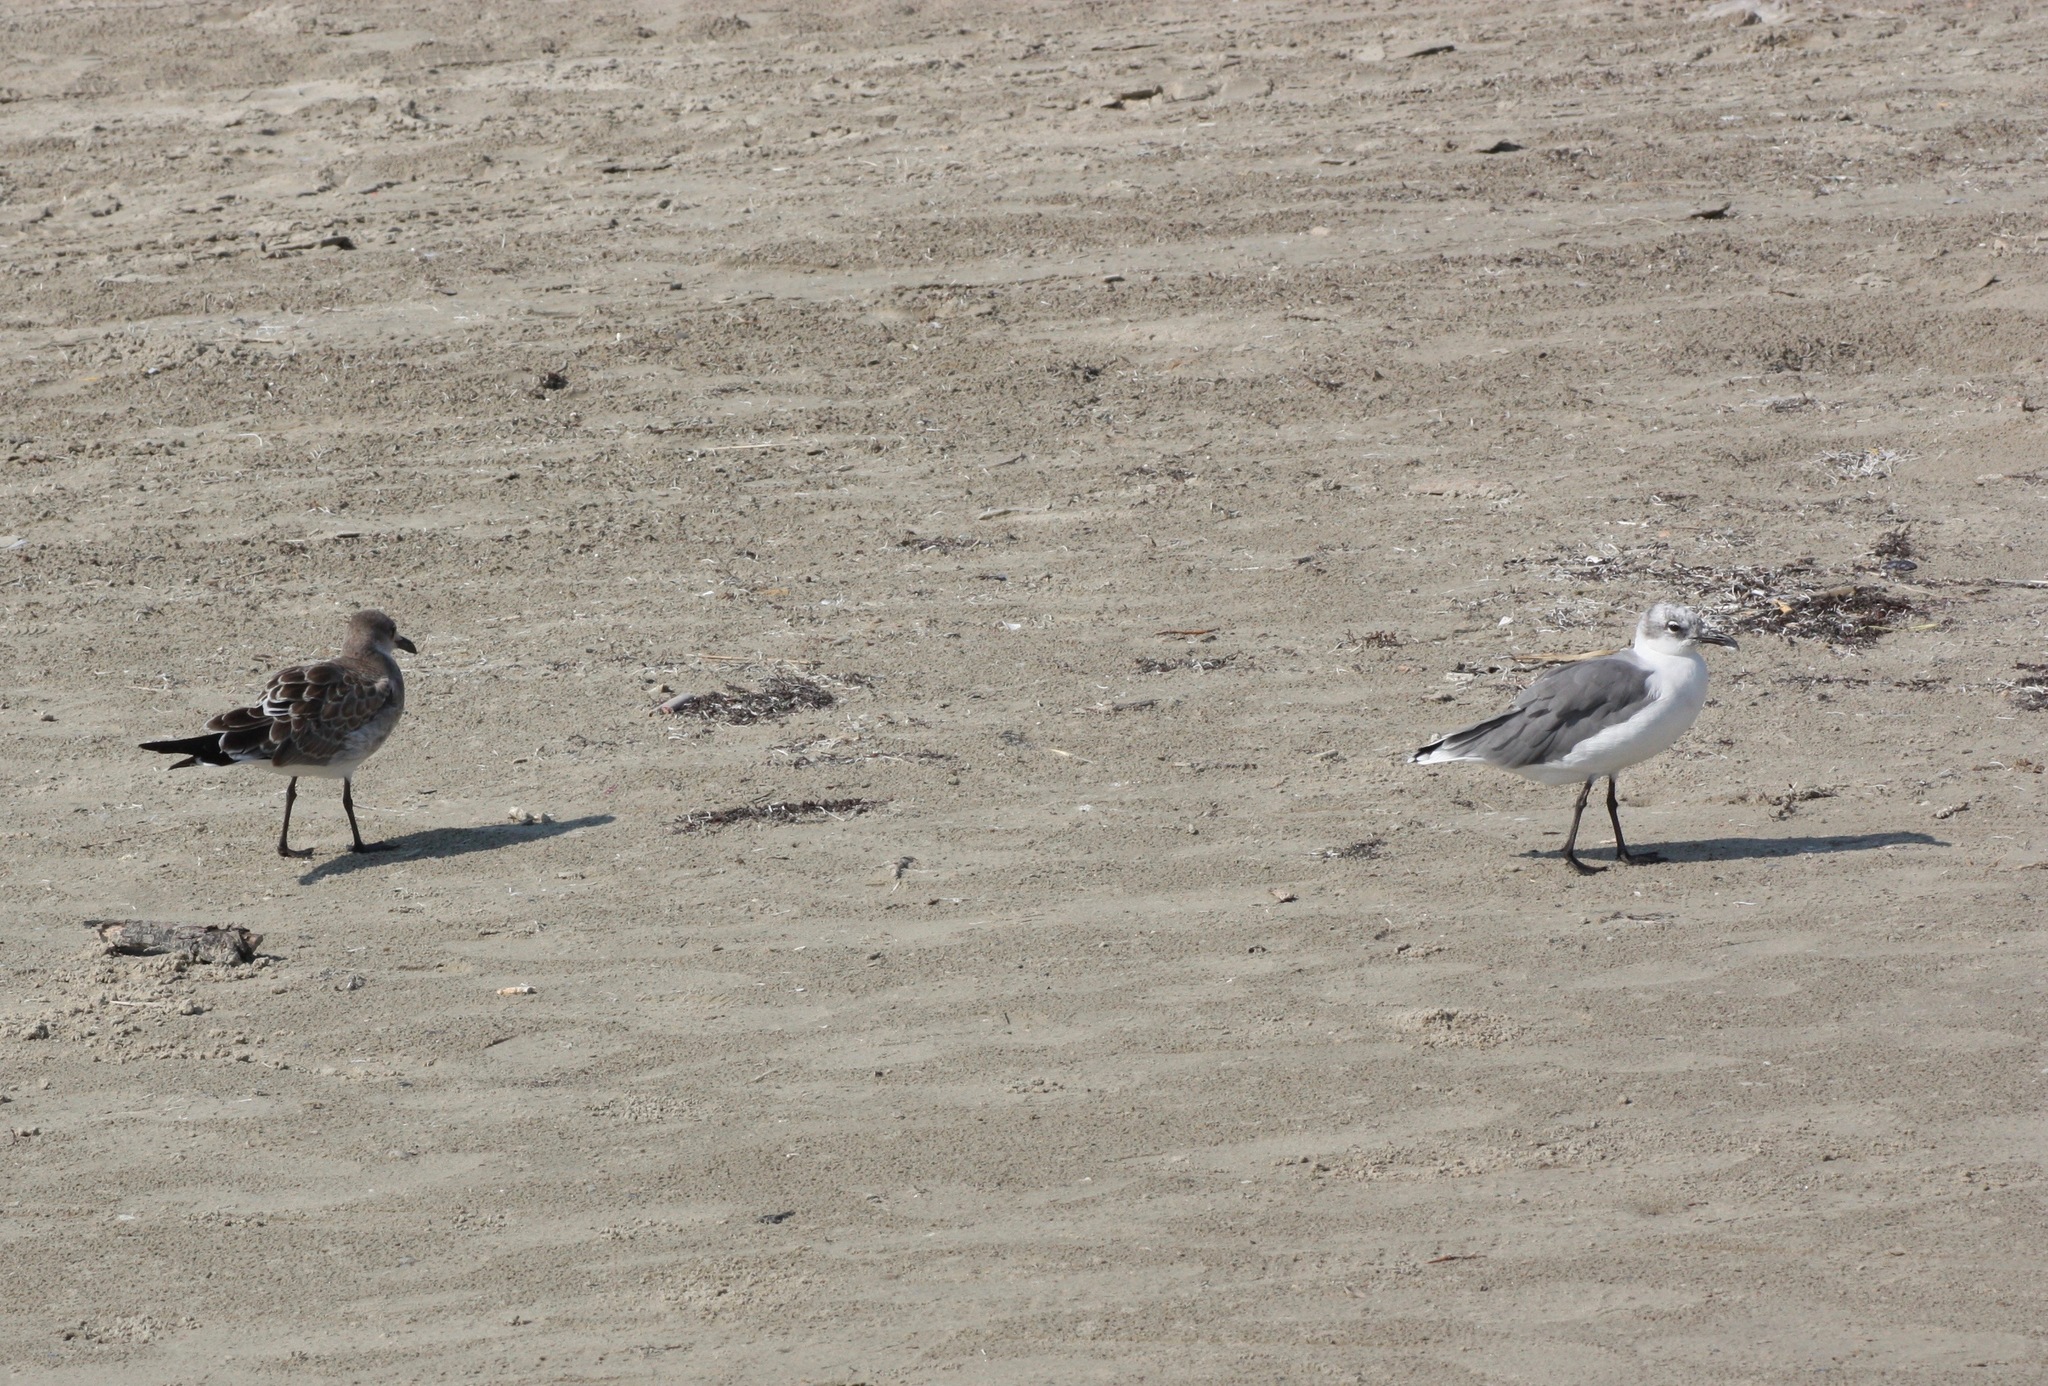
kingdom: Animalia
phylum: Chordata
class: Aves
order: Charadriiformes
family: Laridae
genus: Leucophaeus
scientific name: Leucophaeus atricilla
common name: Laughing gull
